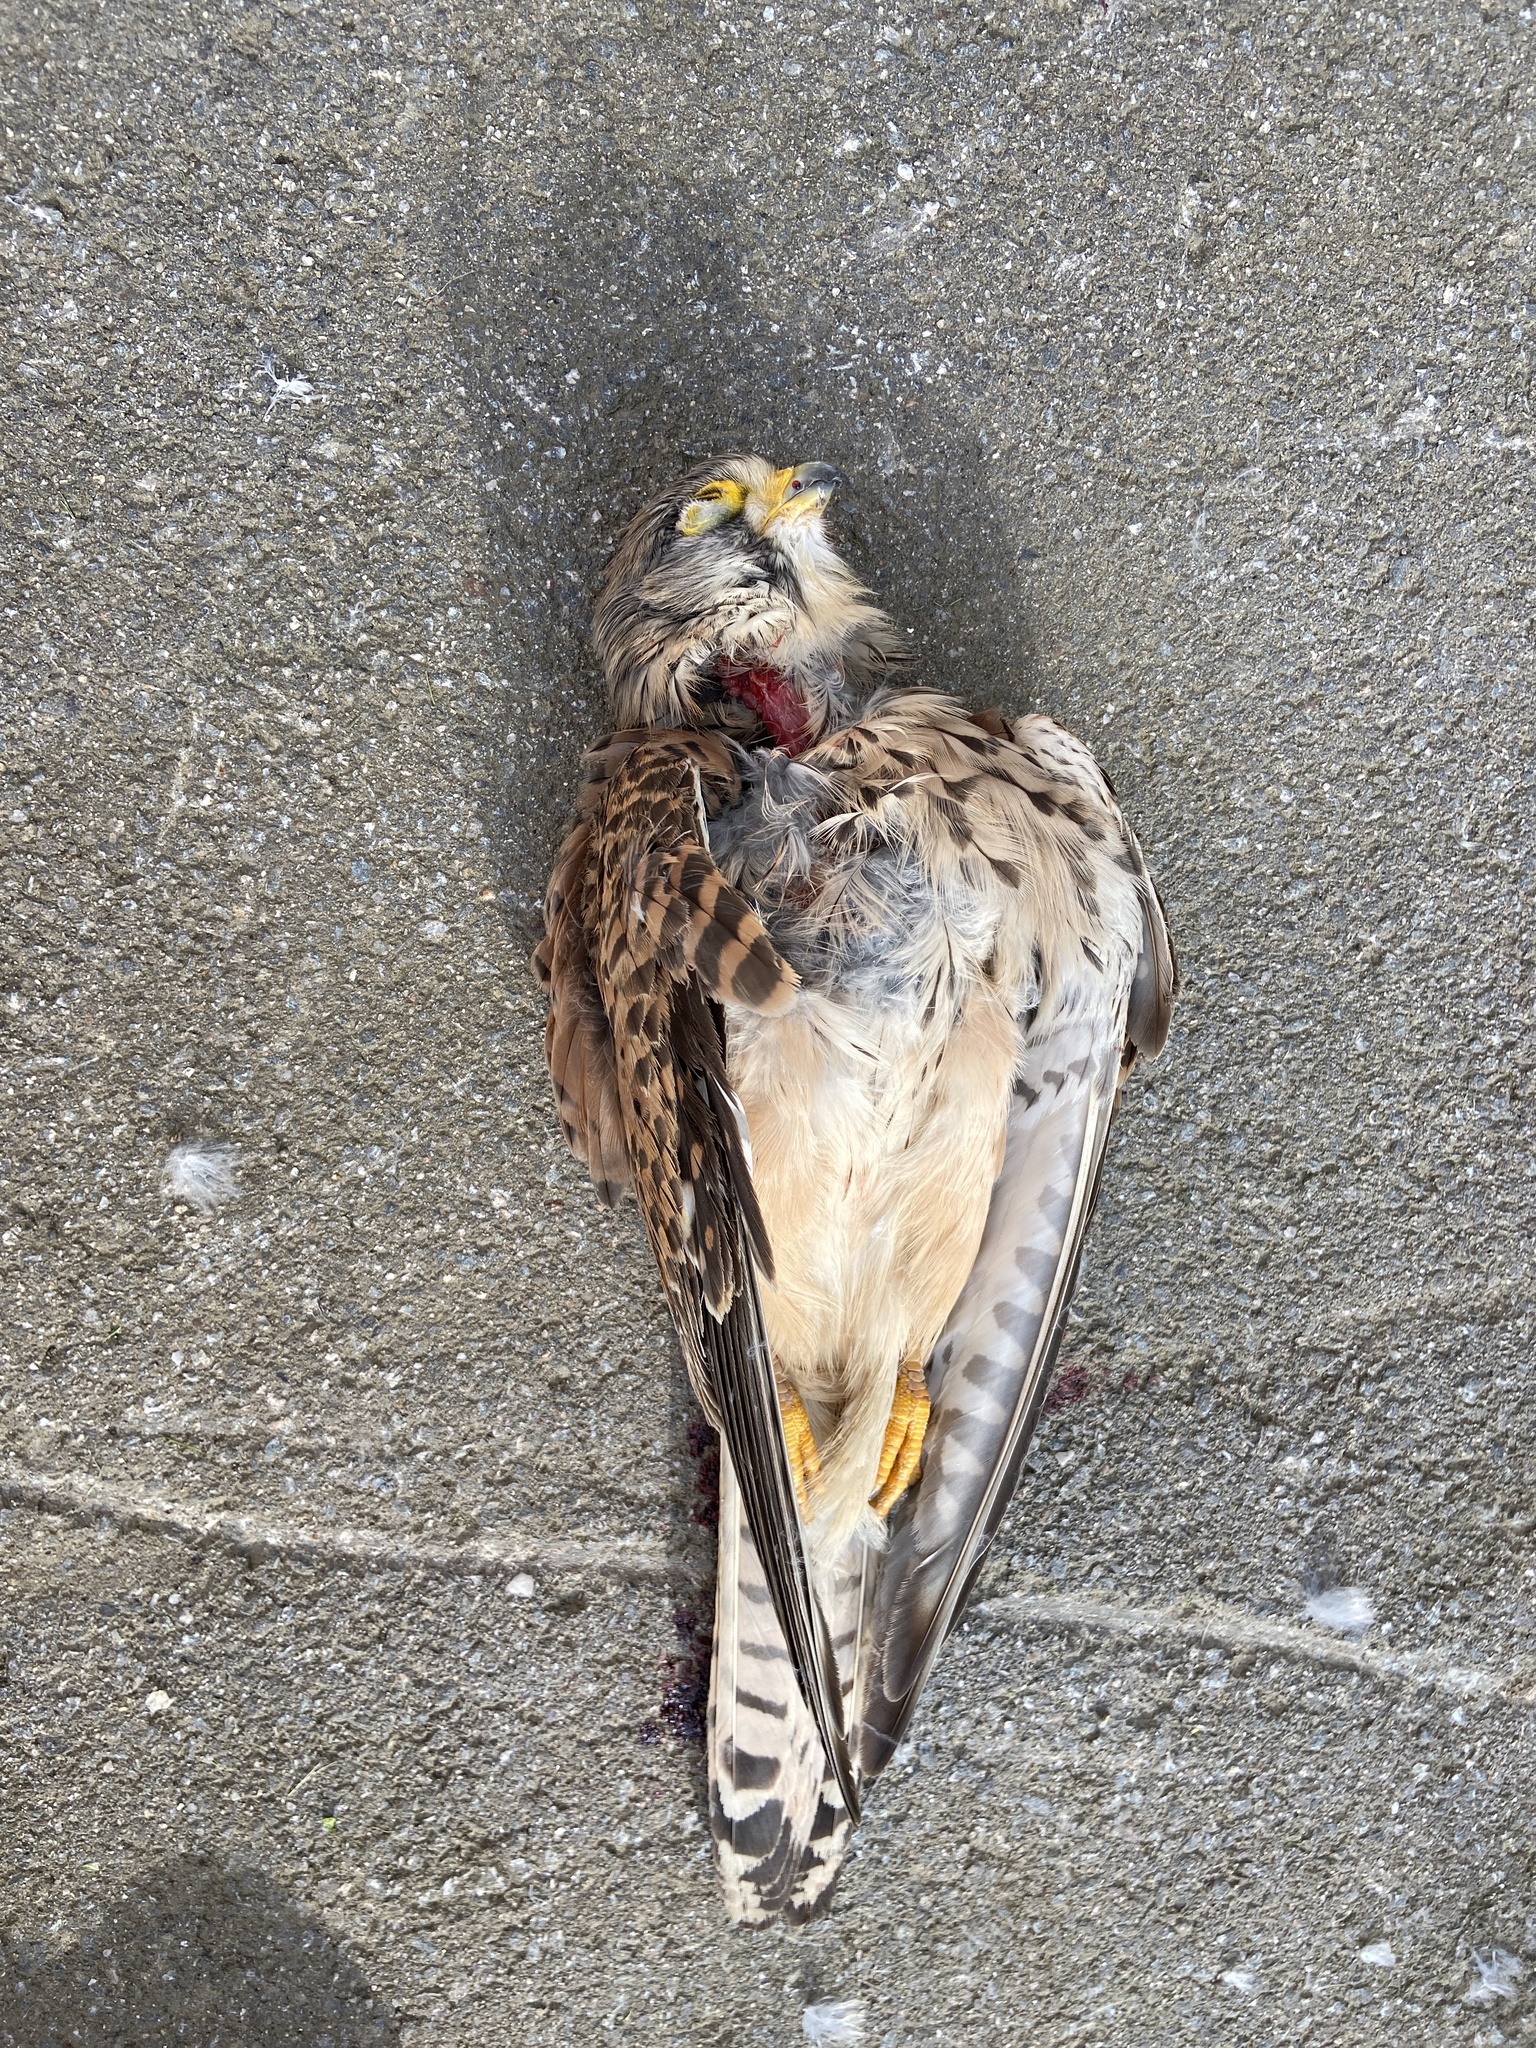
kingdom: Animalia
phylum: Chordata
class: Aves
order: Falconiformes
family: Falconidae
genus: Falco
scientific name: Falco tinnunculus
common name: Common kestrel
